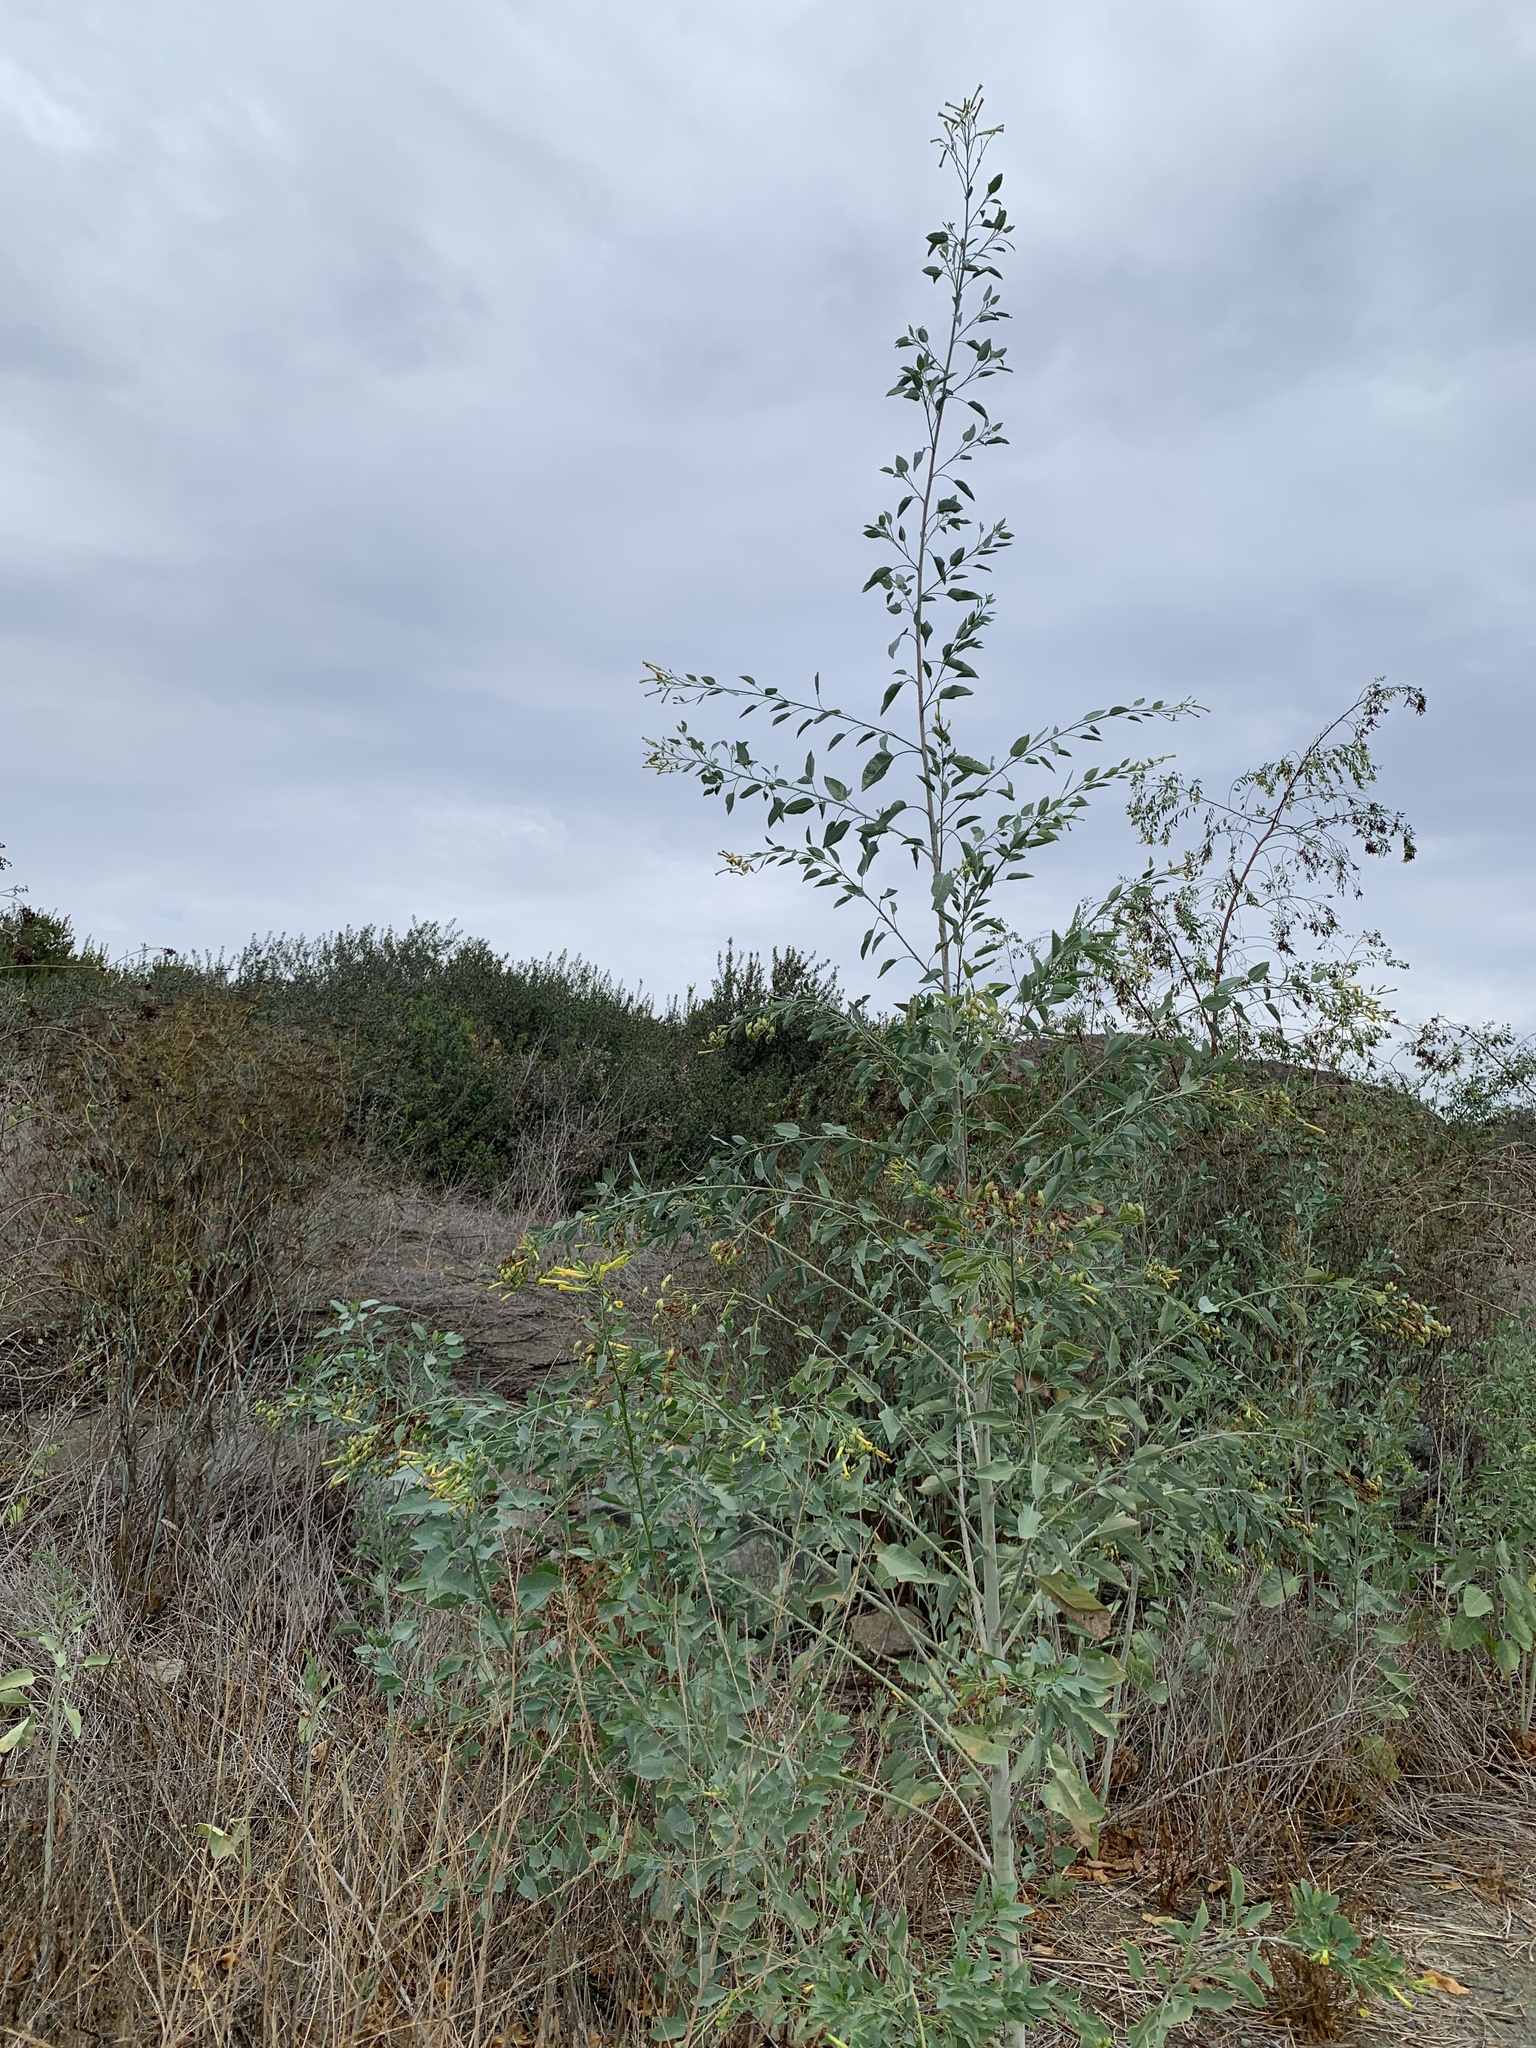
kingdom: Plantae
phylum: Tracheophyta
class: Magnoliopsida
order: Solanales
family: Solanaceae
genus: Nicotiana
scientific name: Nicotiana glauca
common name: Tree tobacco
